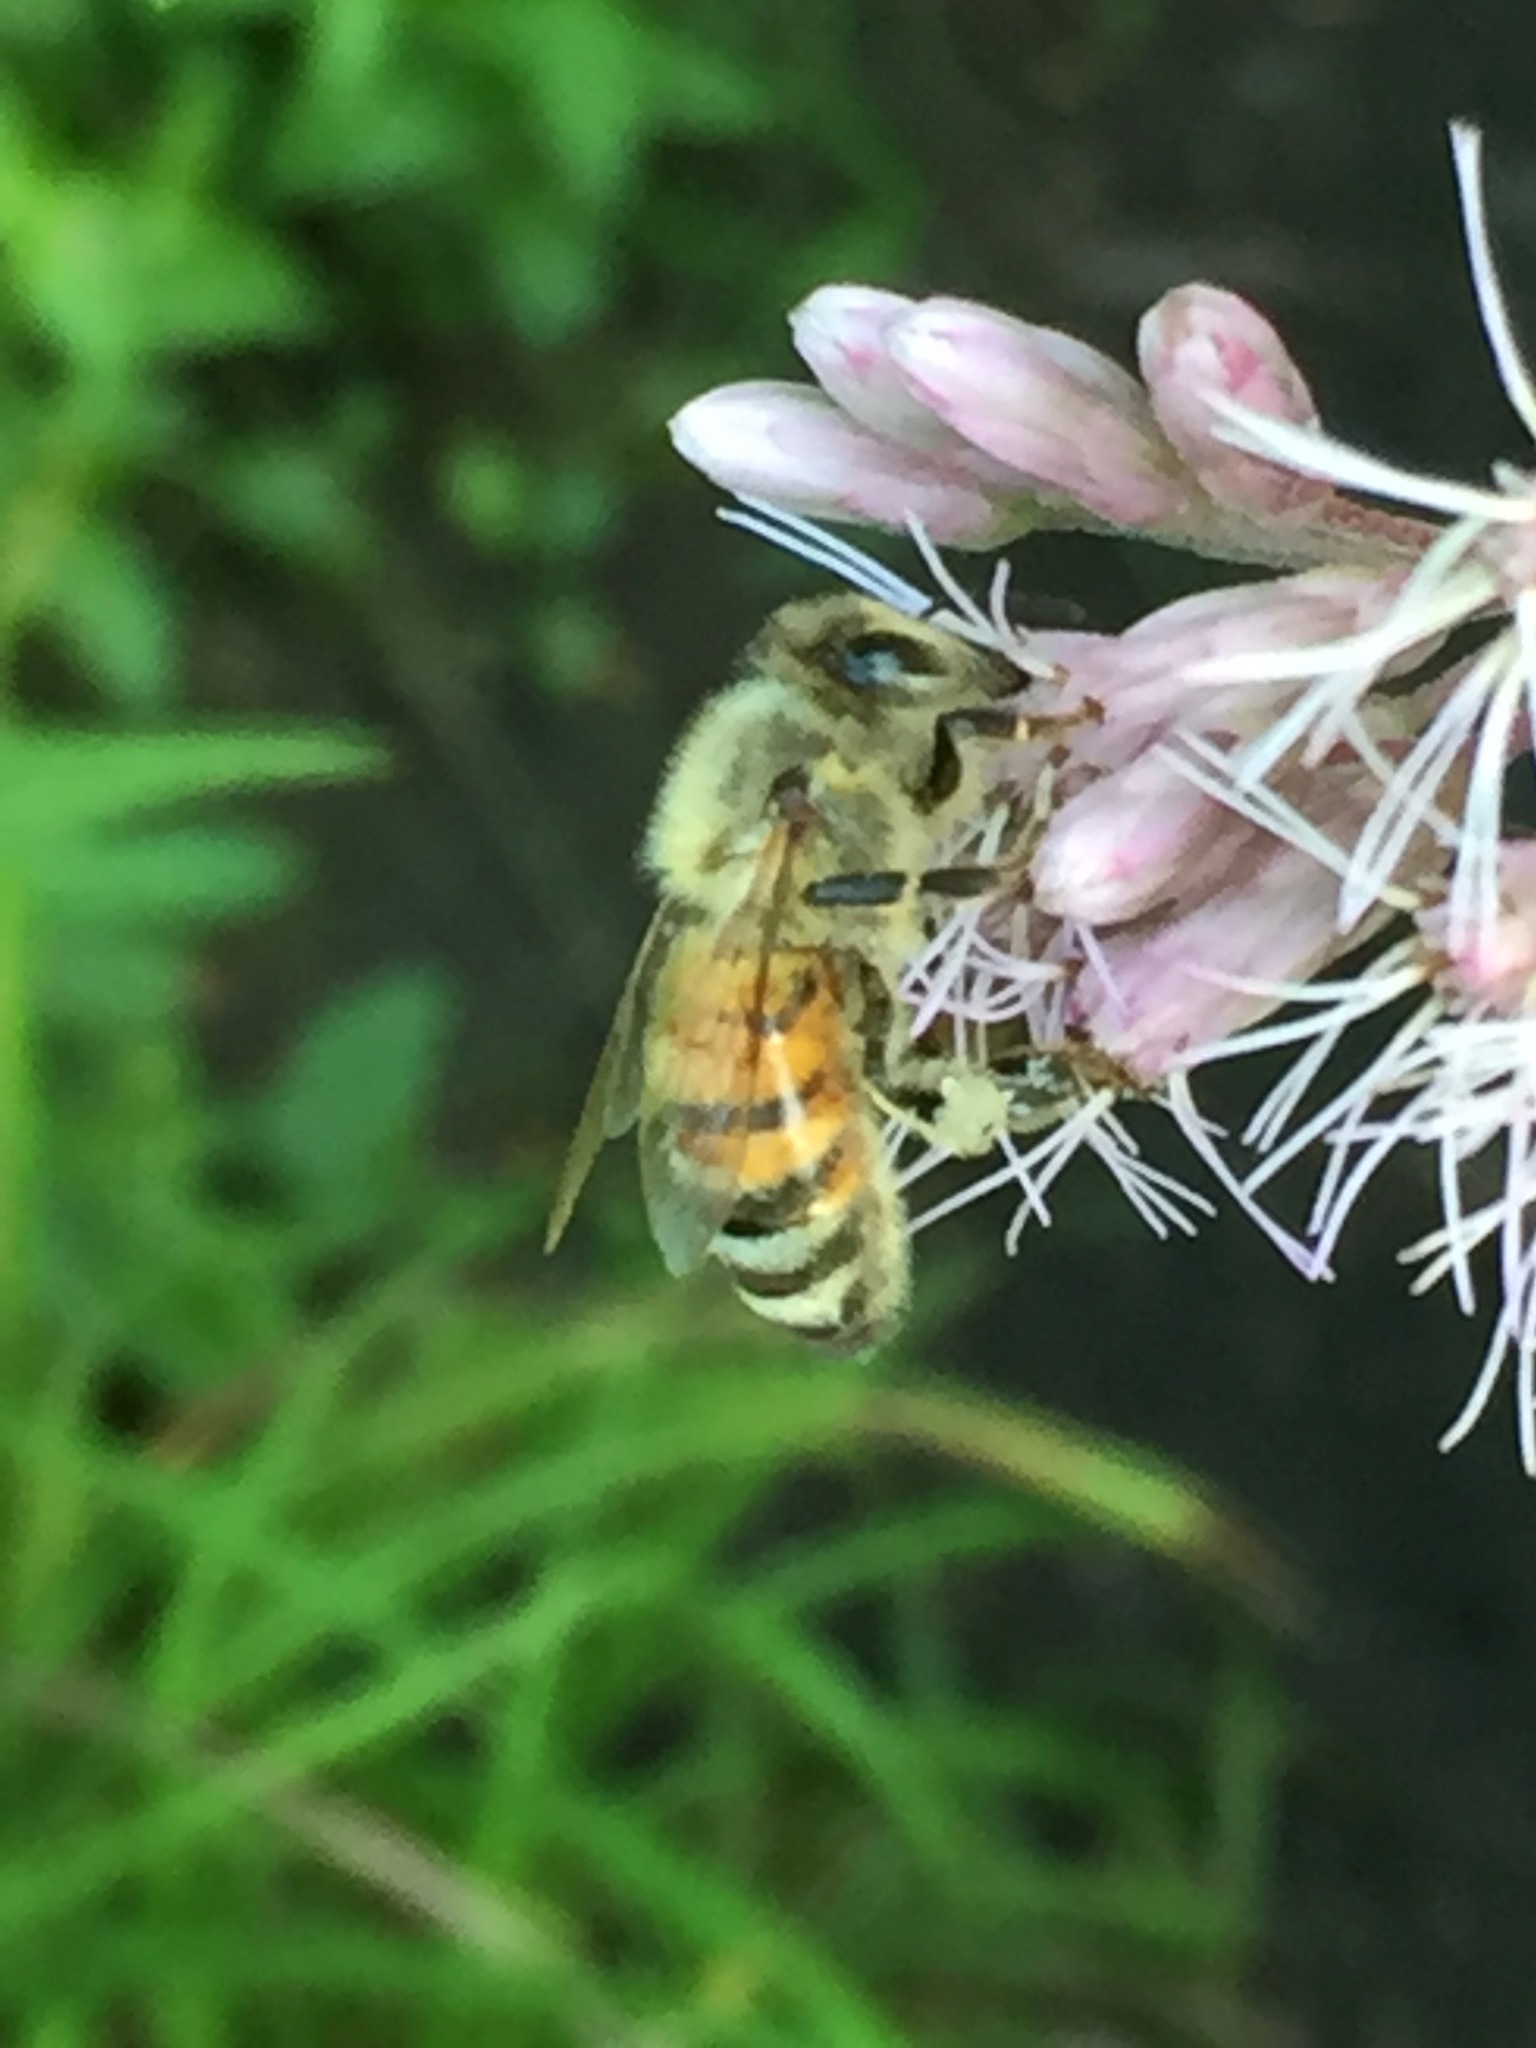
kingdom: Animalia
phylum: Arthropoda
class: Insecta
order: Hymenoptera
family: Apidae
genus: Apis
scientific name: Apis mellifera
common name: Honey bee
